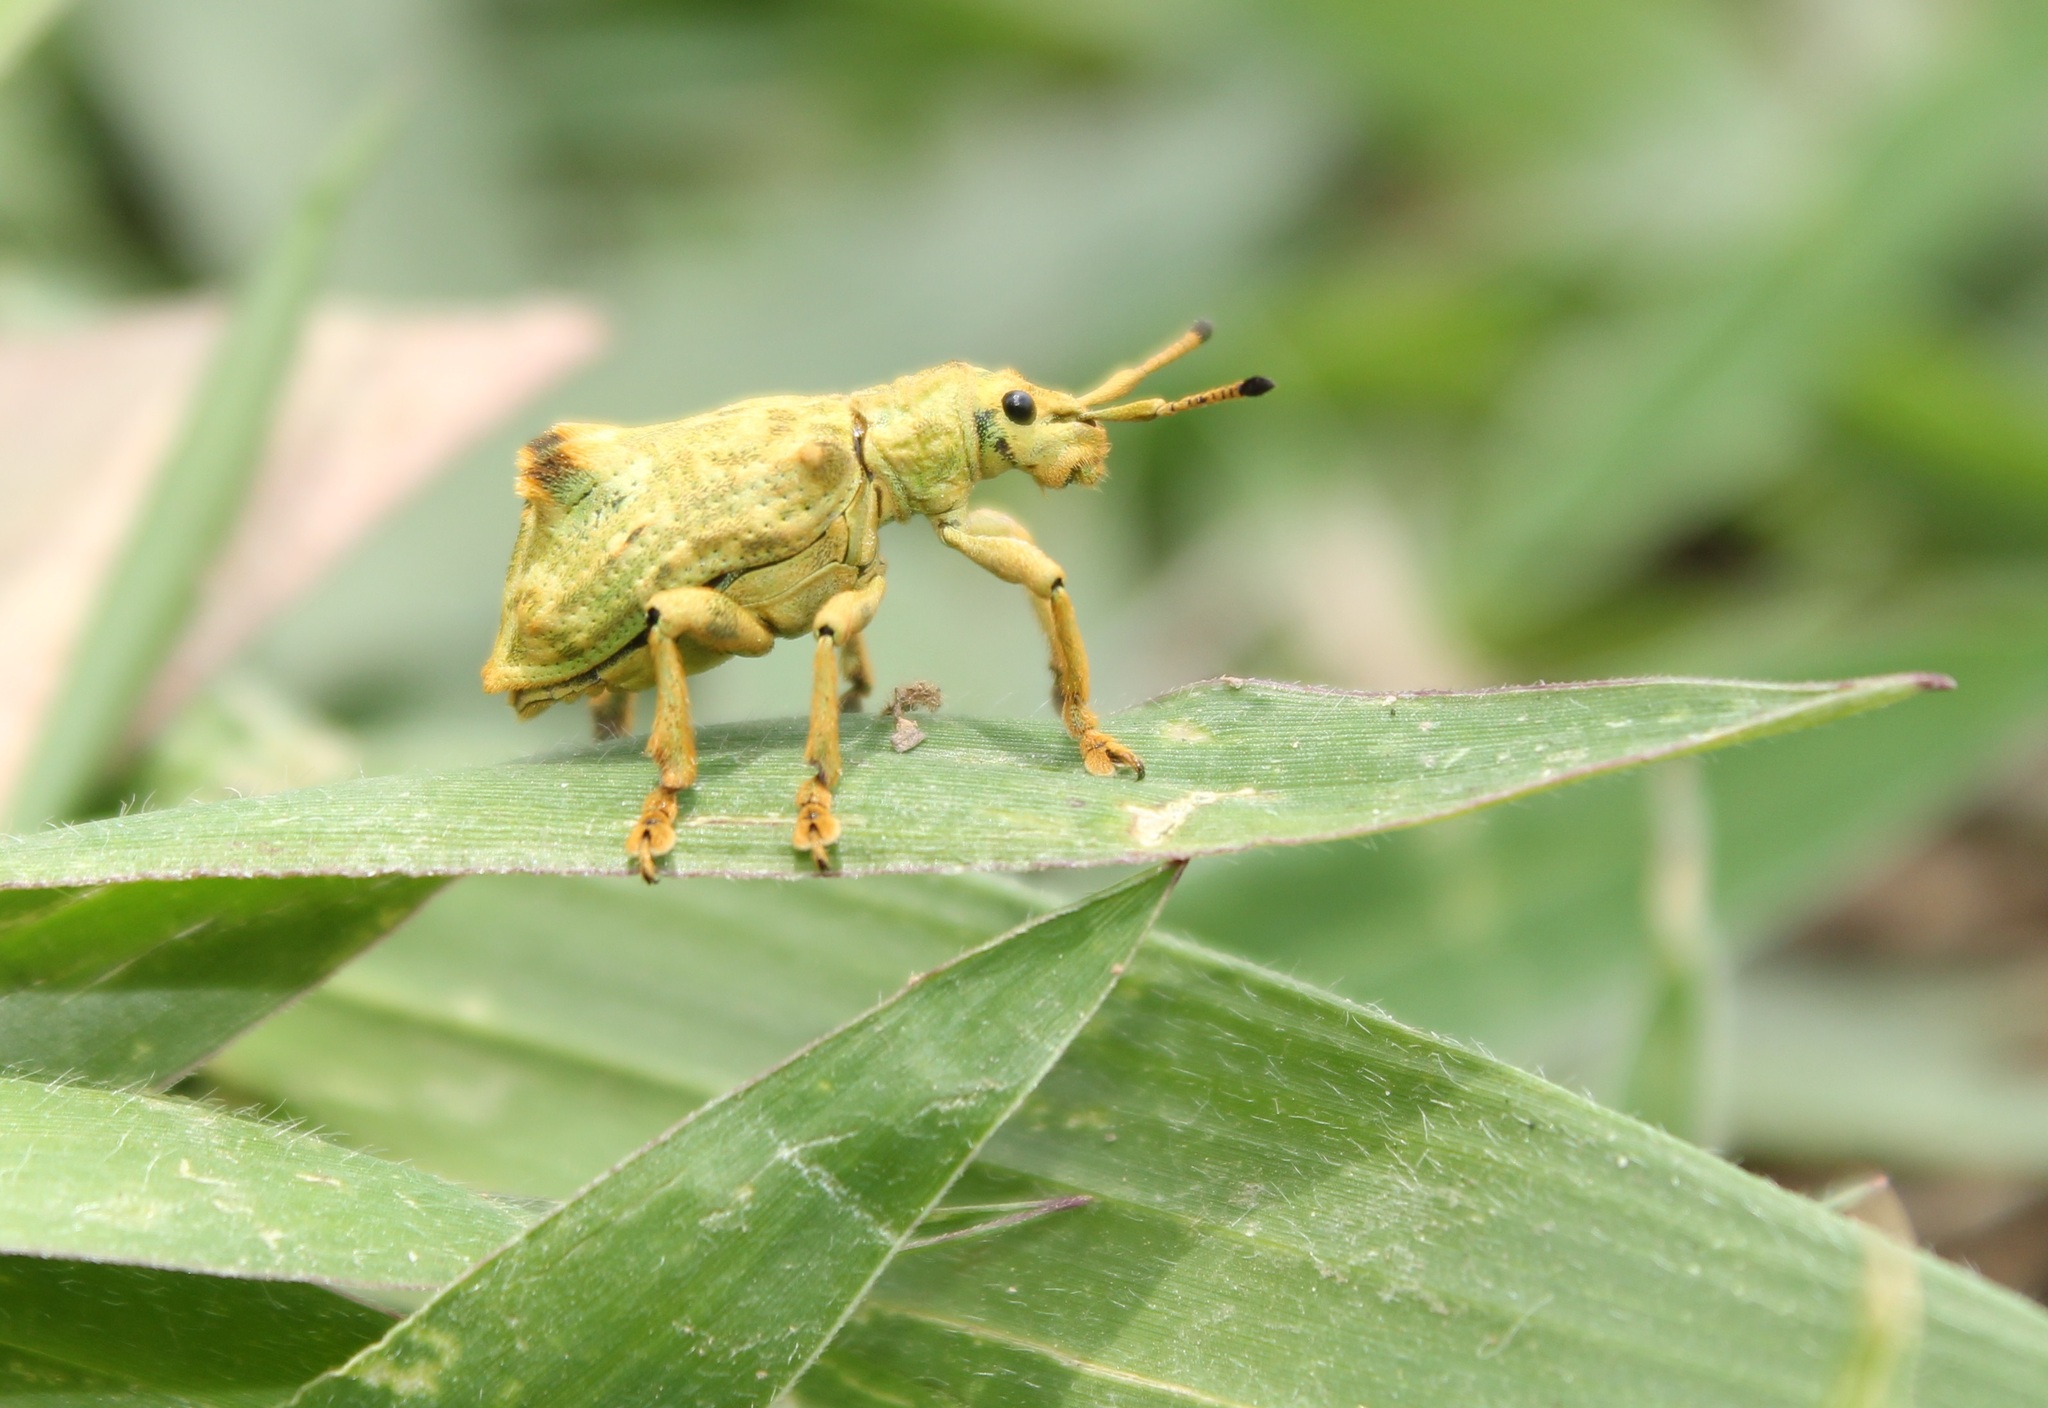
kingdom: Animalia
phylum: Arthropoda
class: Insecta
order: Coleoptera
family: Curculionidae
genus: Platyomus
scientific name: Platyomus nodipennis
